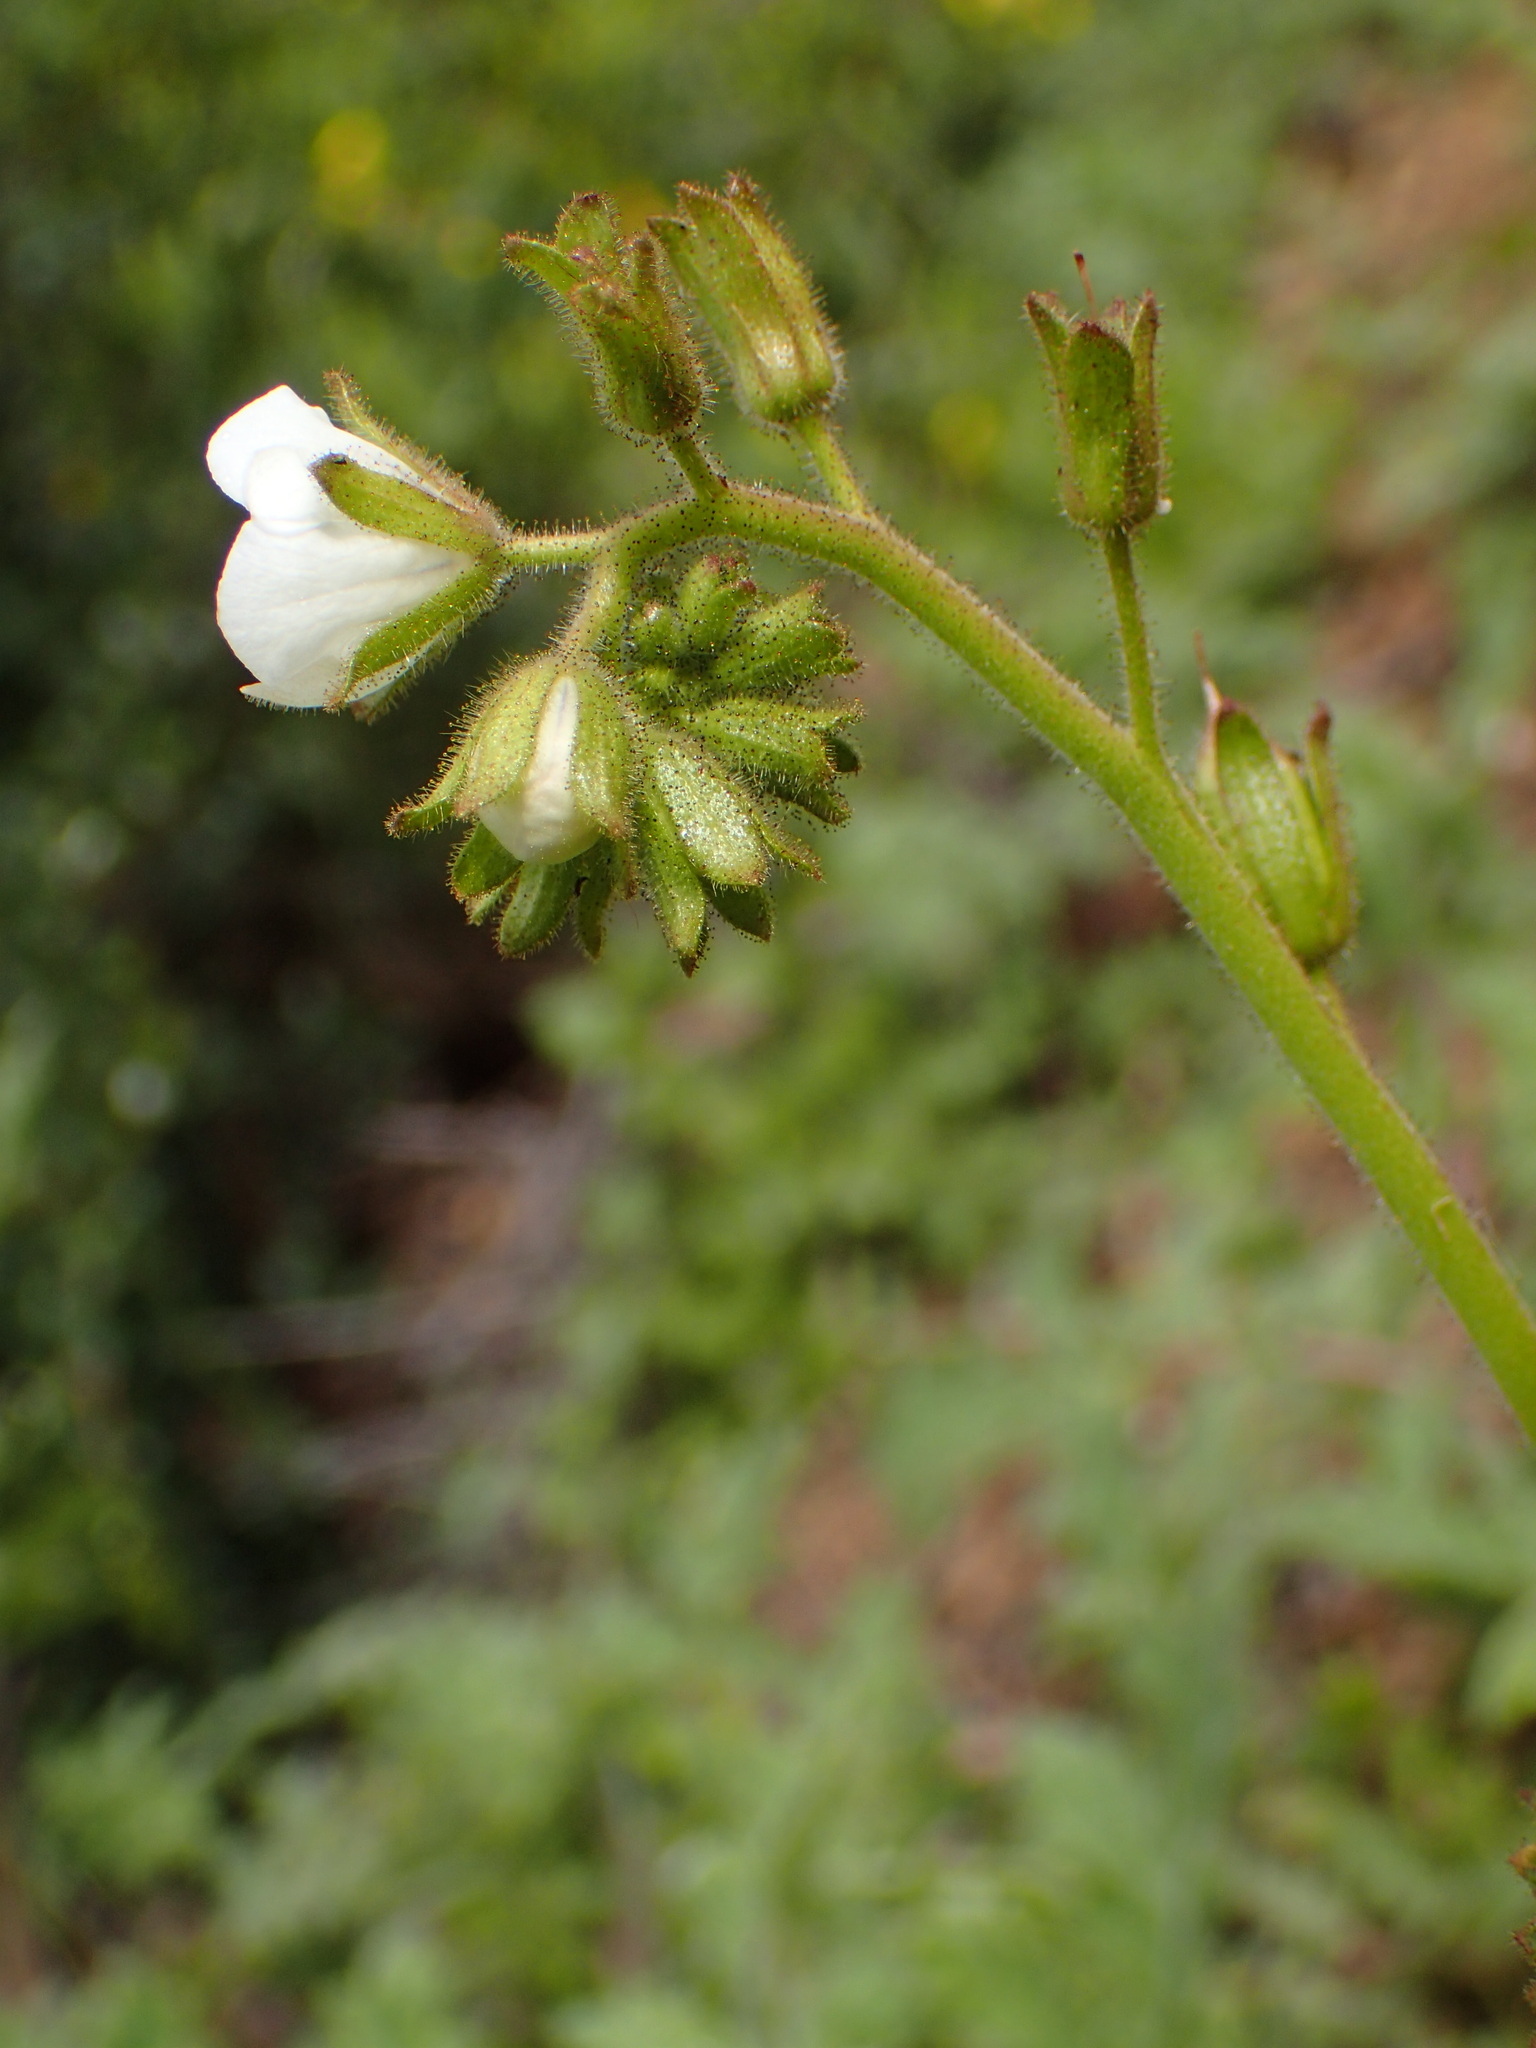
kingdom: Plantae
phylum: Tracheophyta
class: Magnoliopsida
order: Boraginales
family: Hydrophyllaceae
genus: Phacelia
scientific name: Phacelia viscida
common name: Sticky phacelia
